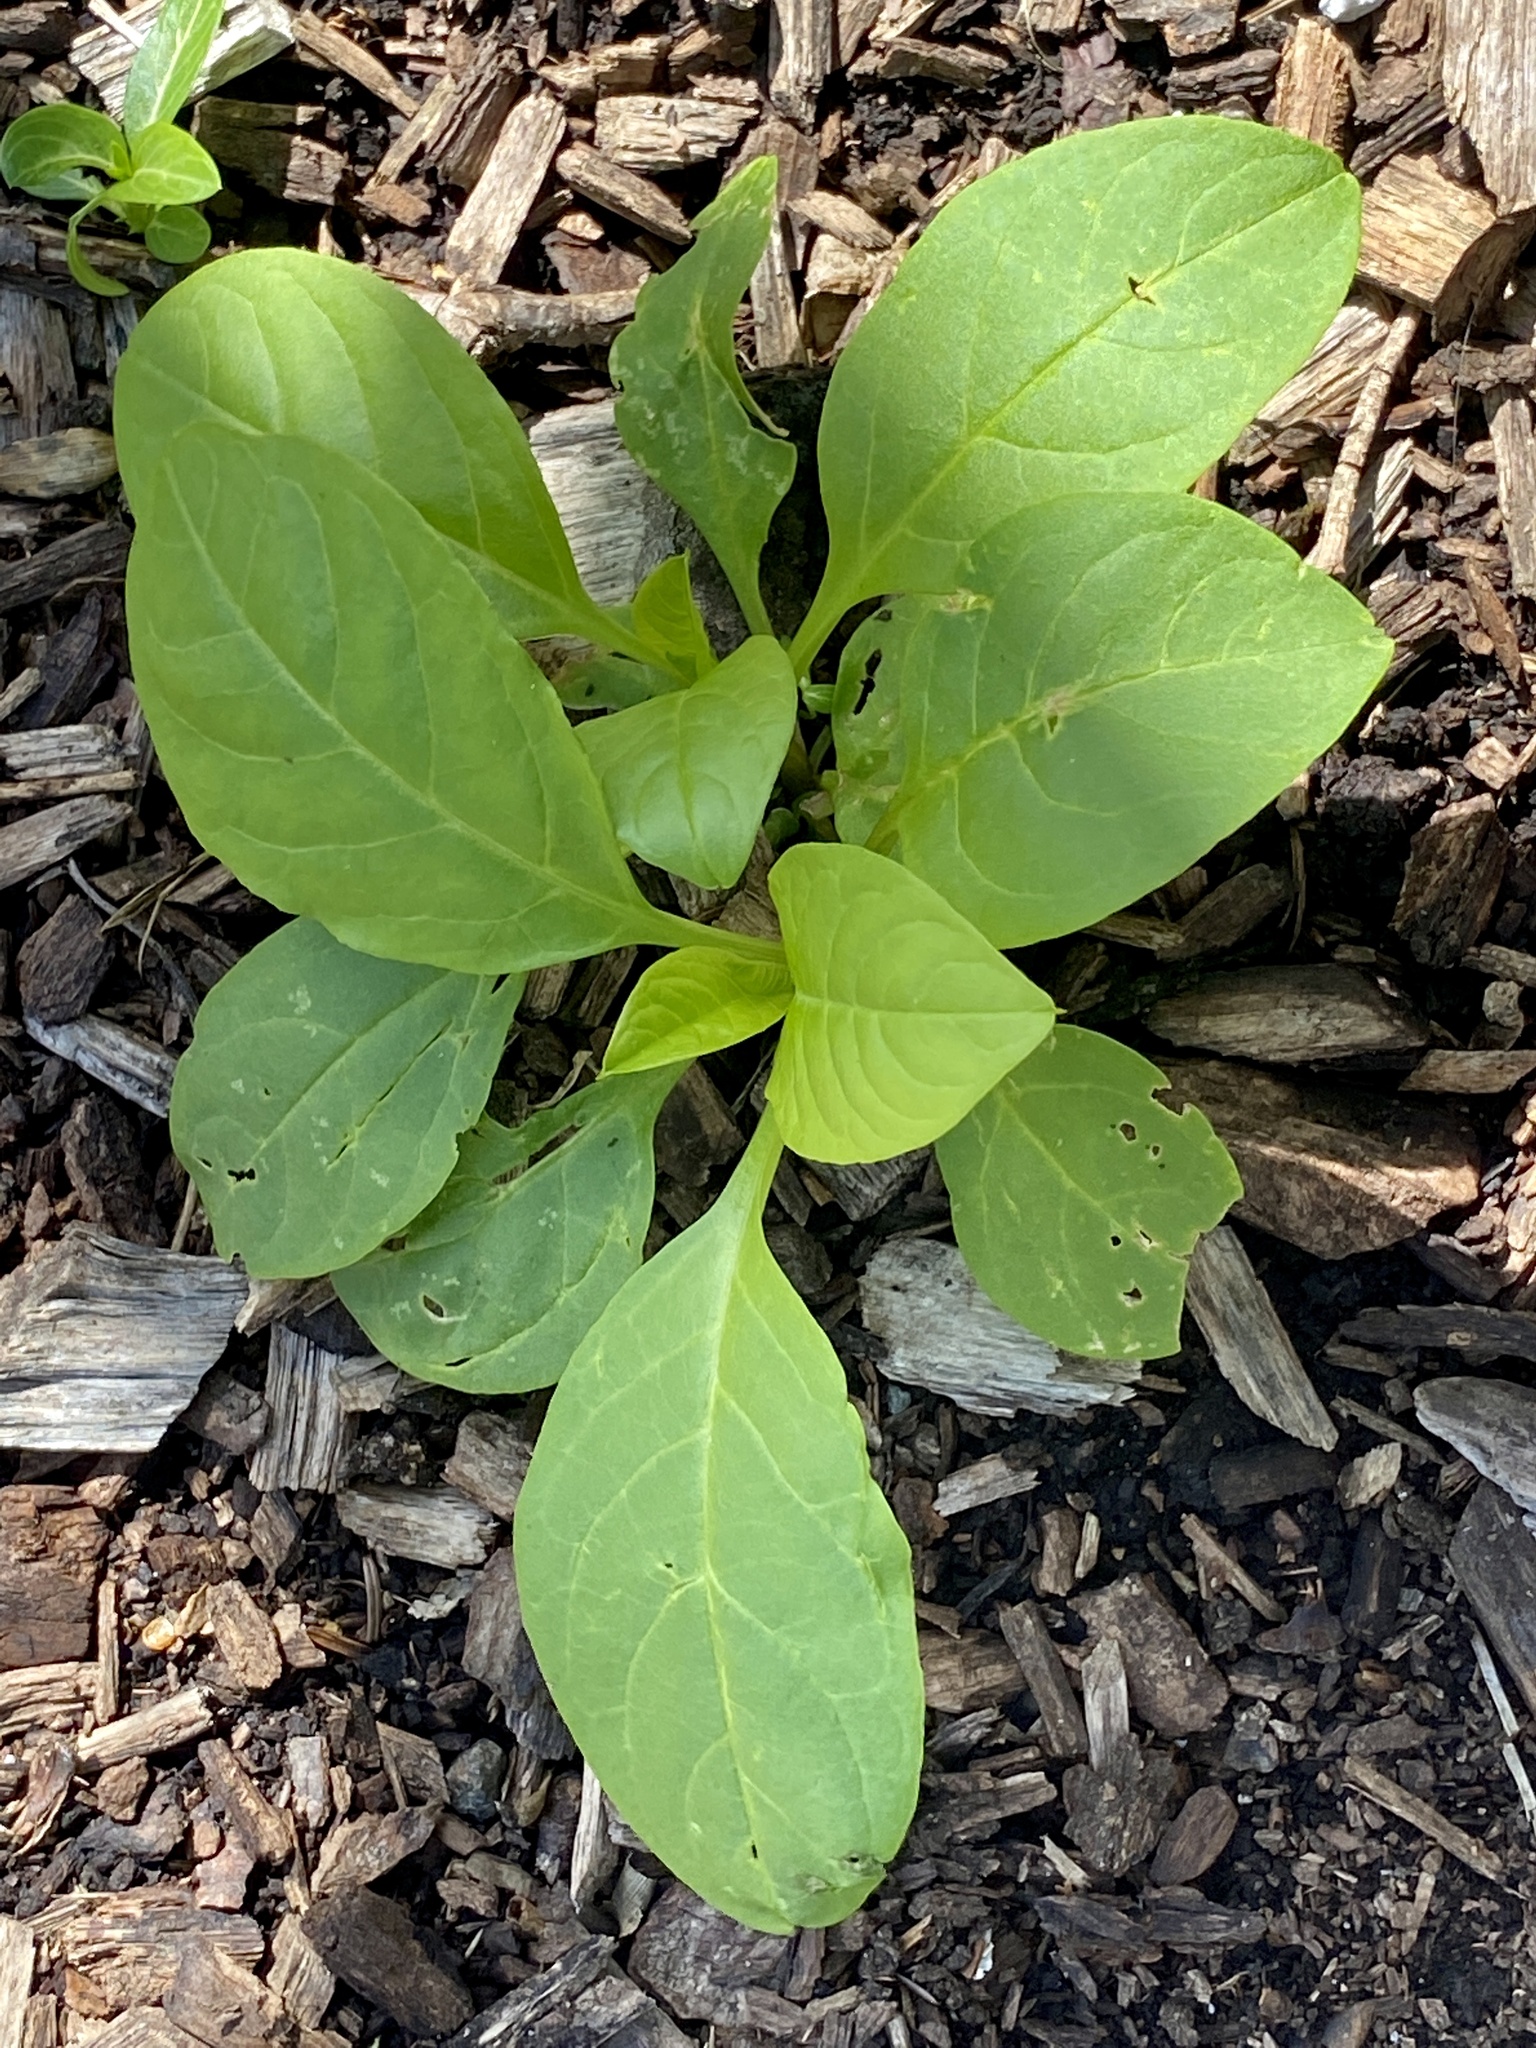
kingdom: Plantae
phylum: Tracheophyta
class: Magnoliopsida
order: Caryophyllales
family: Phytolaccaceae
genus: Phytolacca
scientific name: Phytolacca americana
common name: American pokeweed
